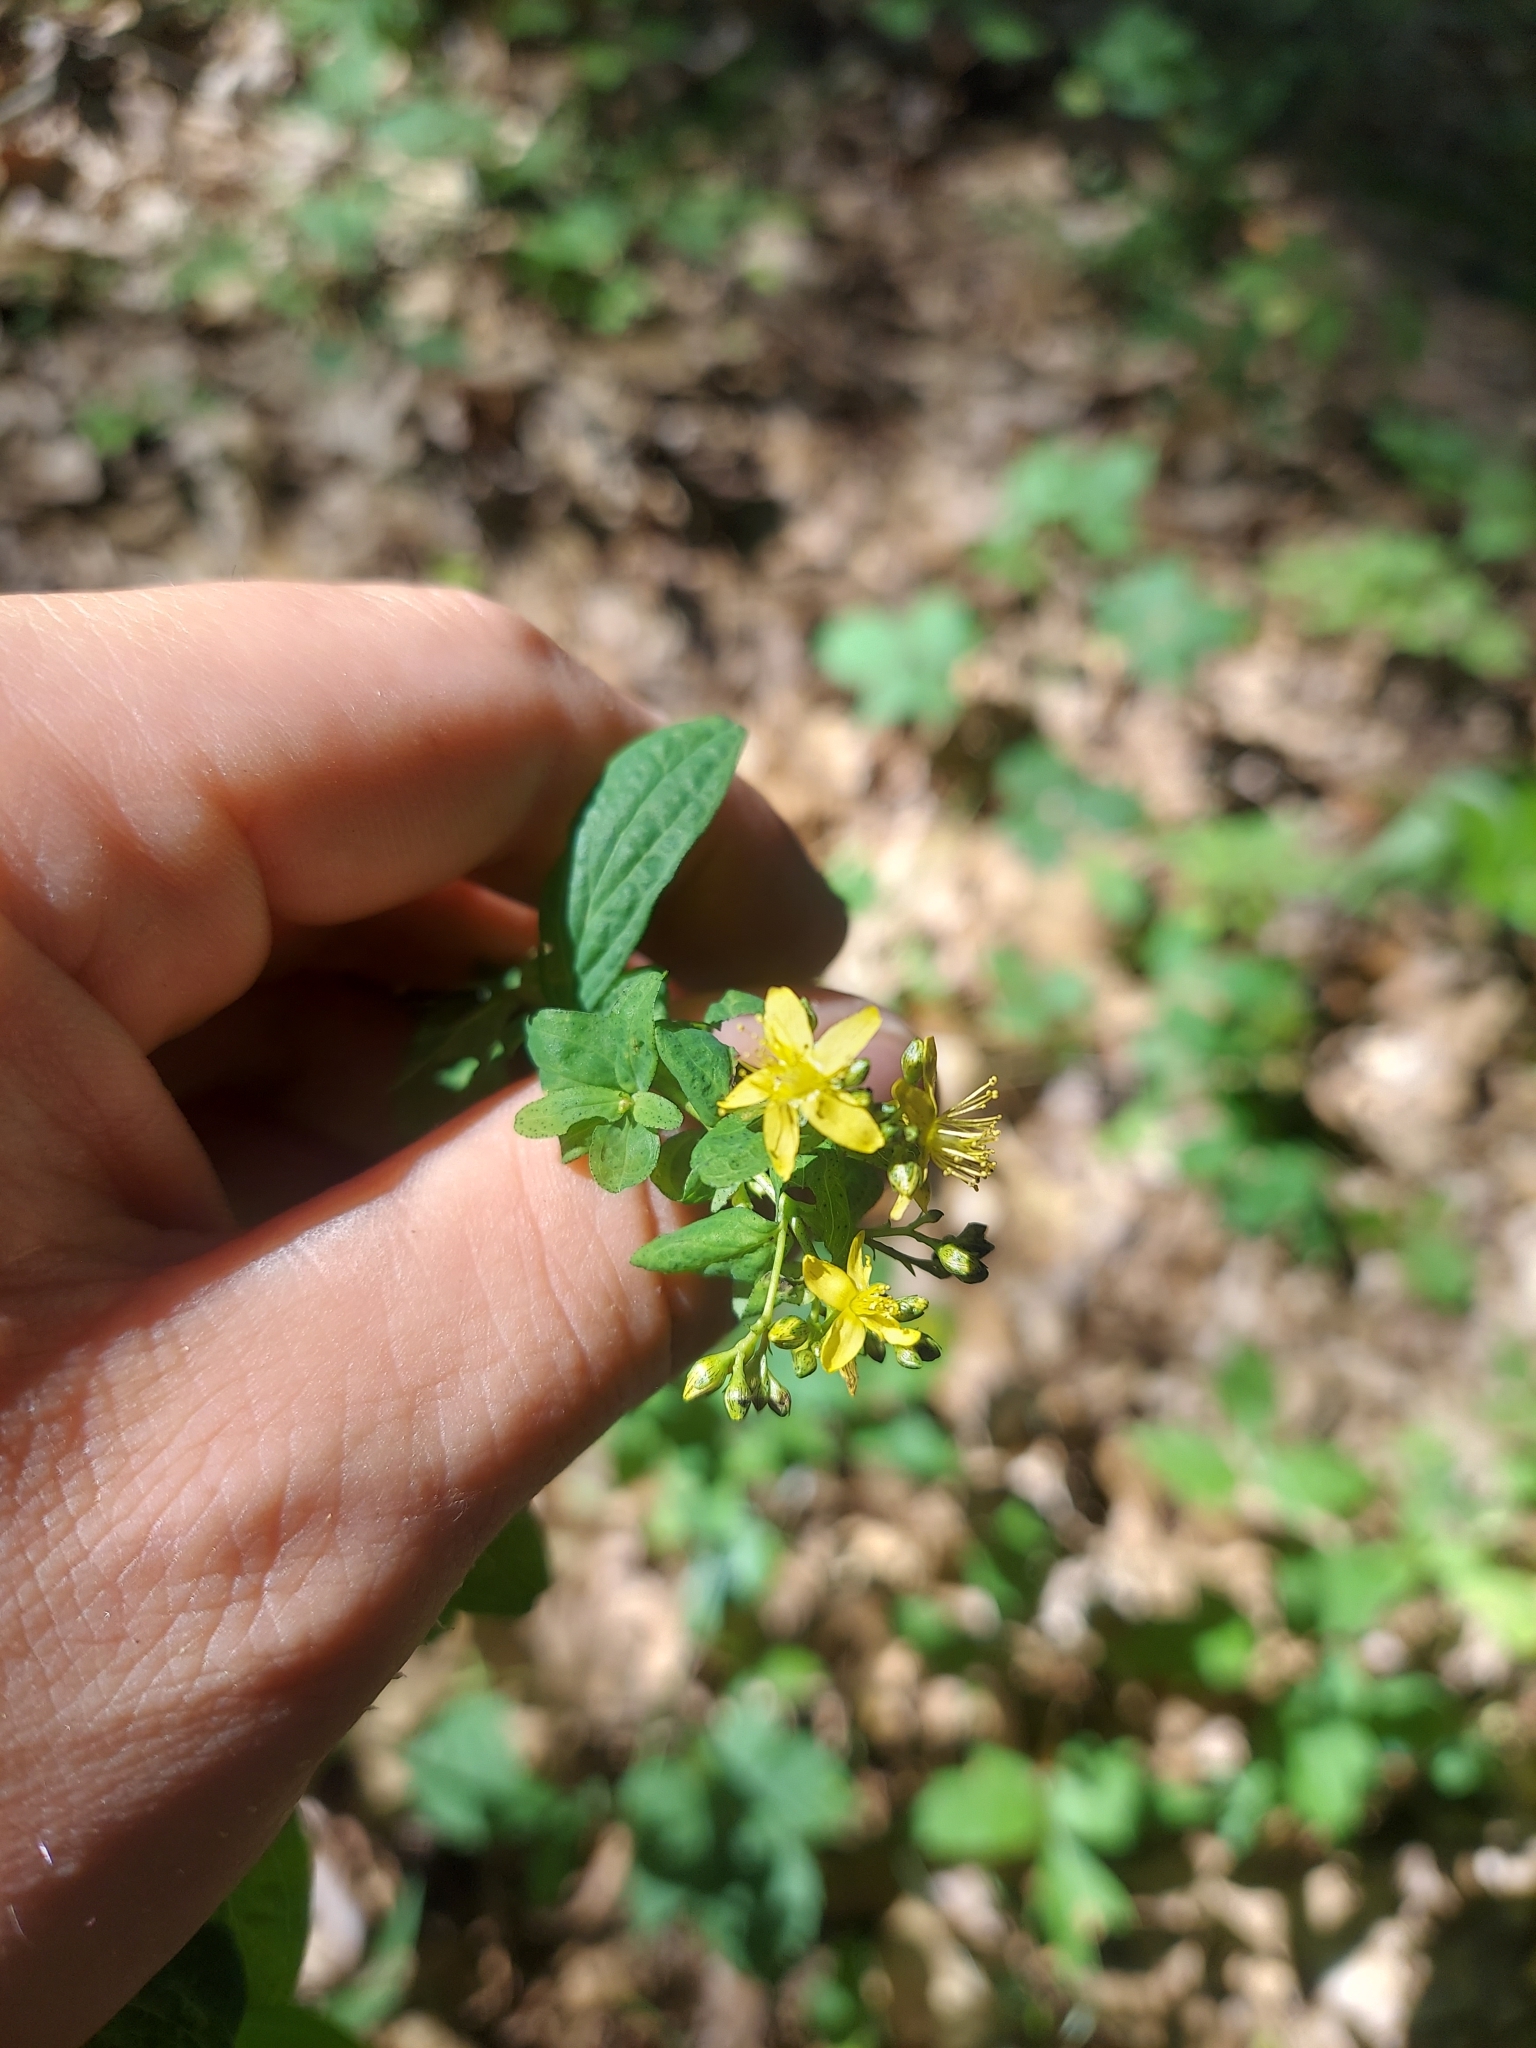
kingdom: Plantae
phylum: Tracheophyta
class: Magnoliopsida
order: Malpighiales
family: Hypericaceae
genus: Hypericum
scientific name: Hypericum punctatum
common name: Spotted st. john's-wort
